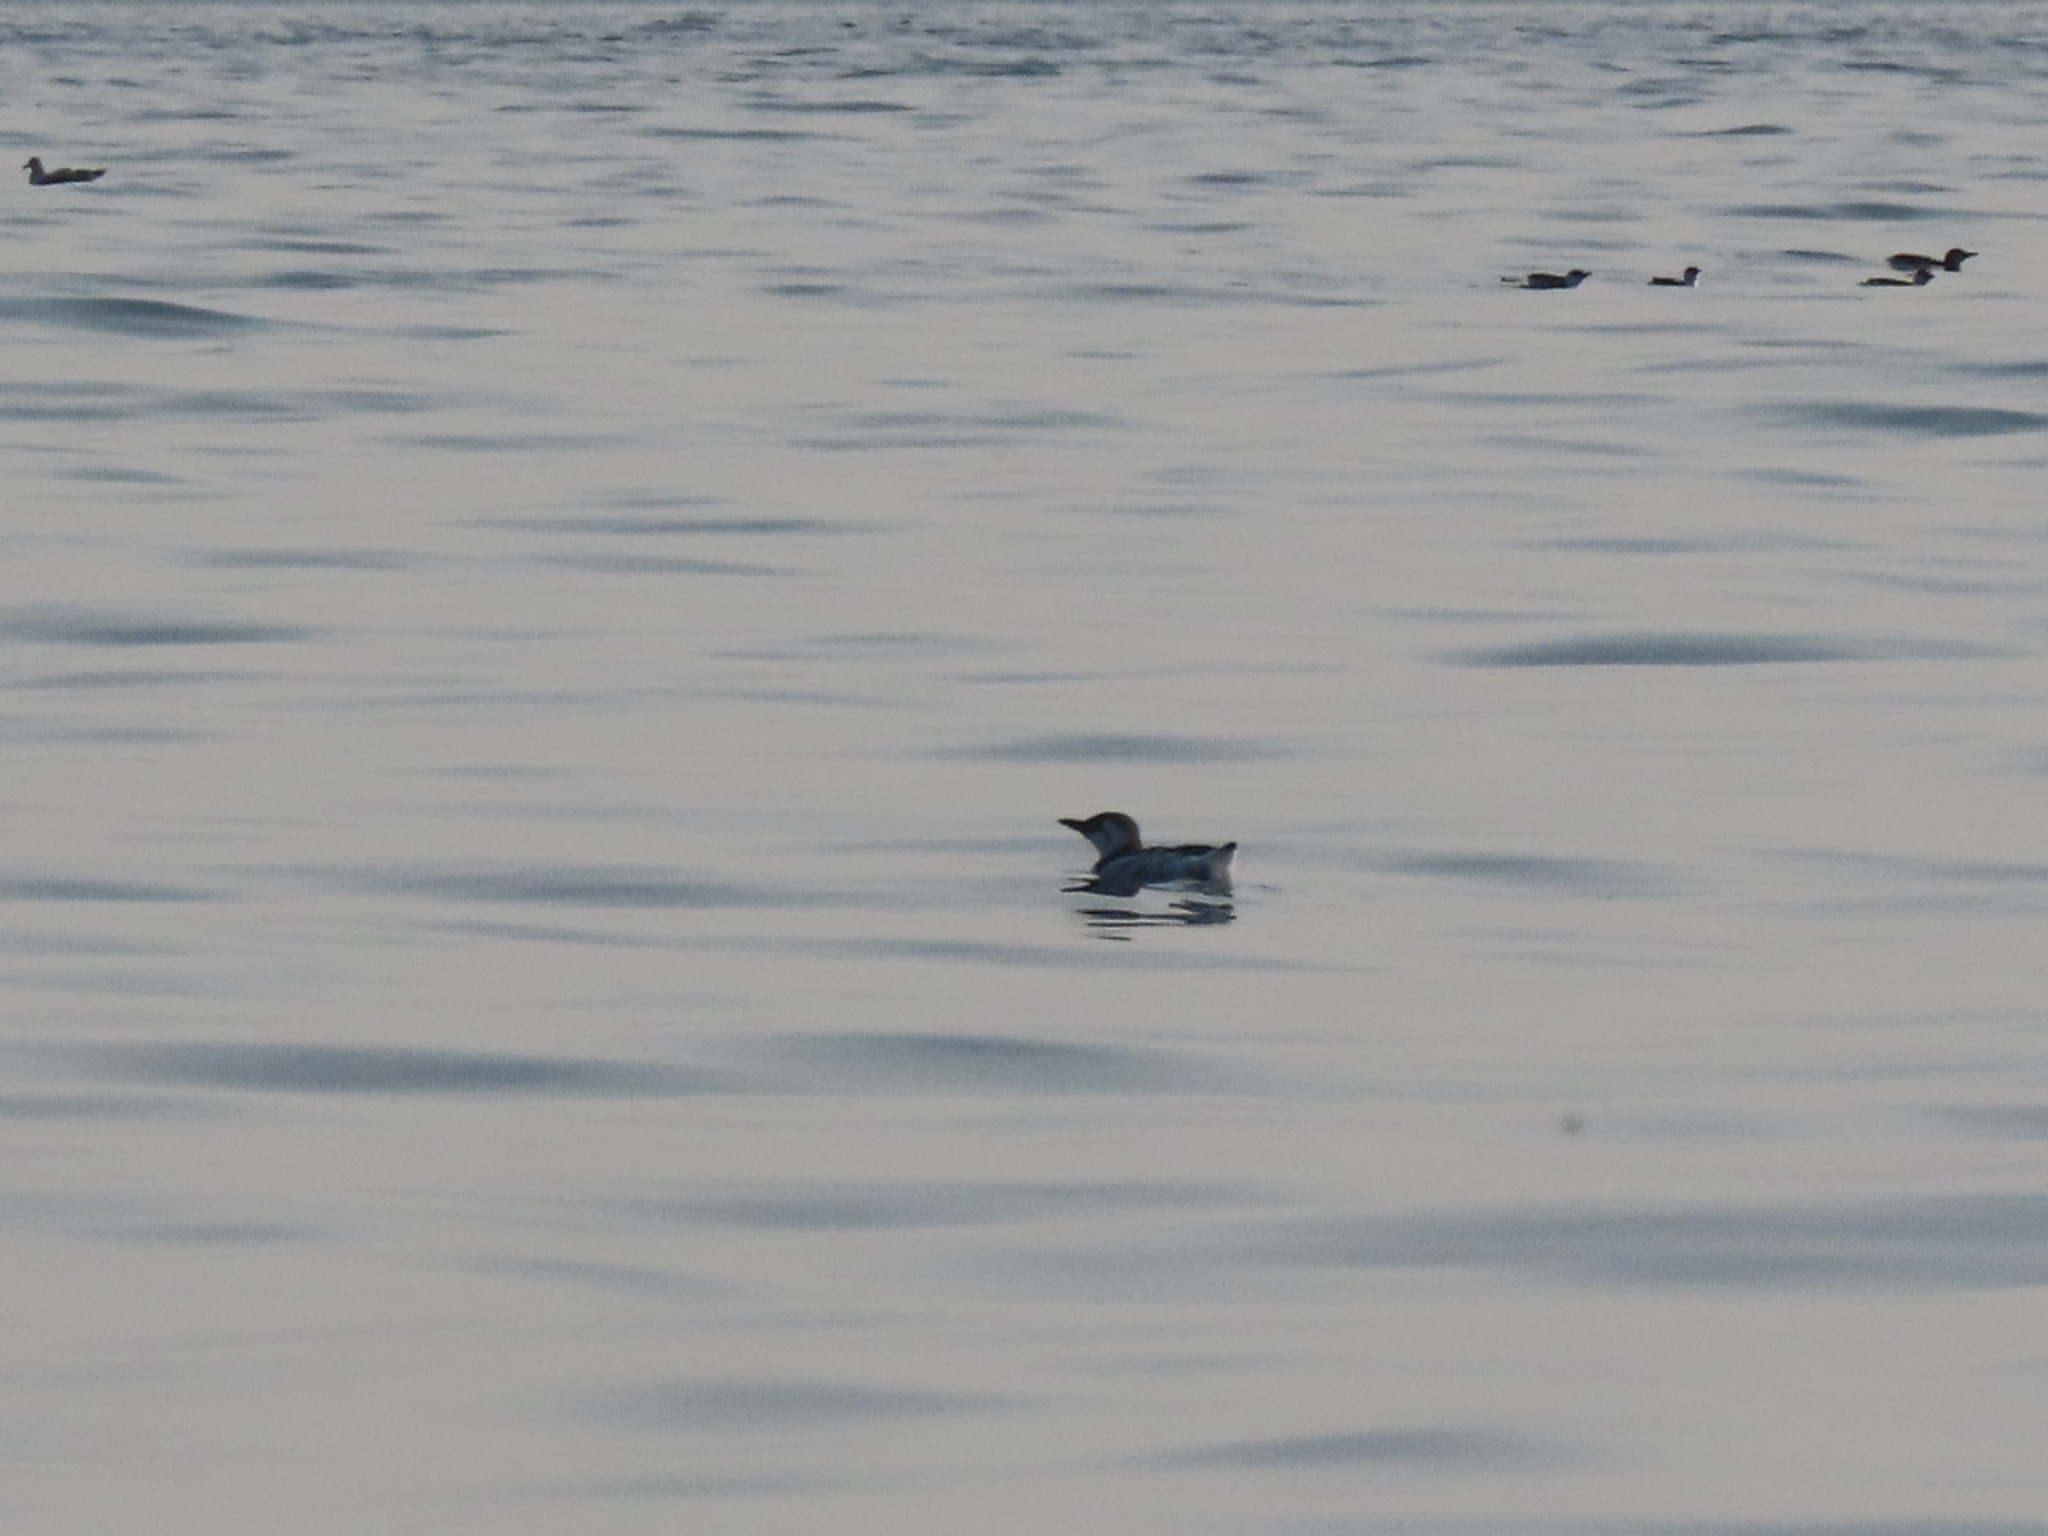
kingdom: Animalia
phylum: Chordata
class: Aves
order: Charadriiformes
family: Alcidae
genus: Uria
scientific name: Uria aalge
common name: Common murre
